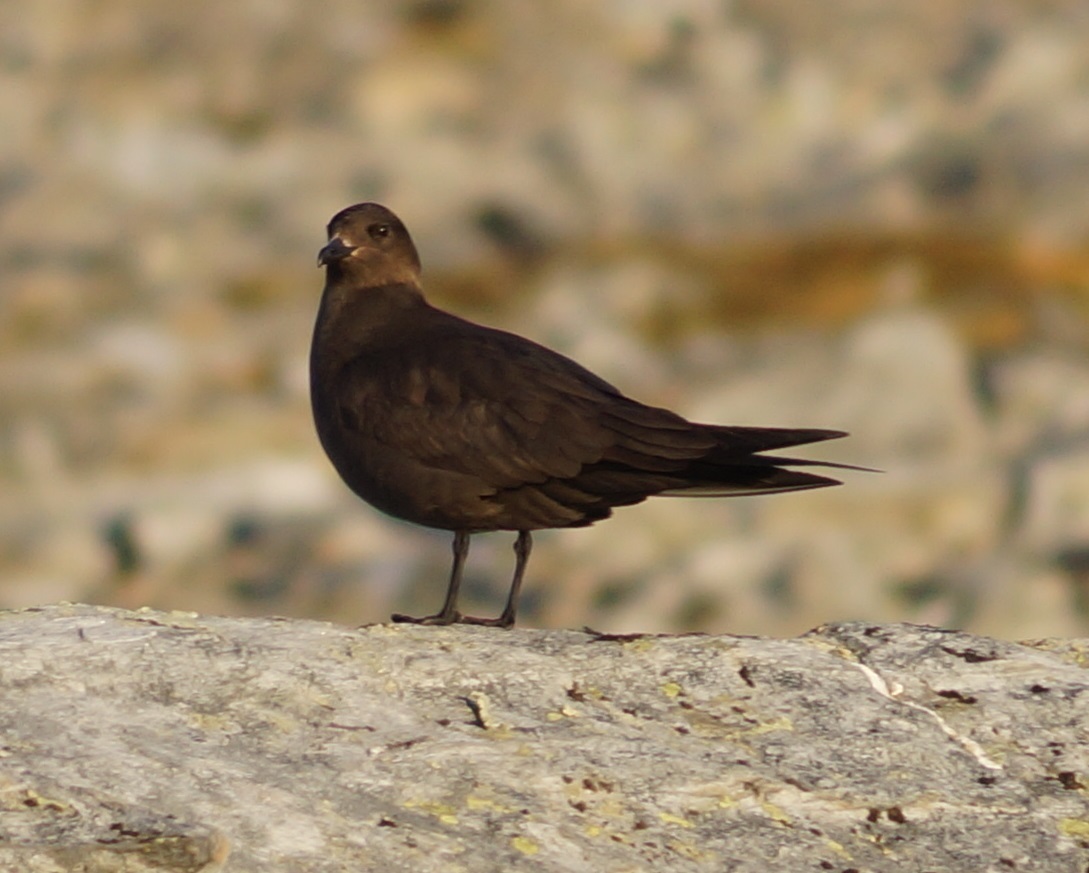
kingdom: Animalia
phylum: Chordata
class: Aves
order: Charadriiformes
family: Stercorariidae
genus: Stercorarius
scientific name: Stercorarius parasiticus
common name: Parasitic jaeger
